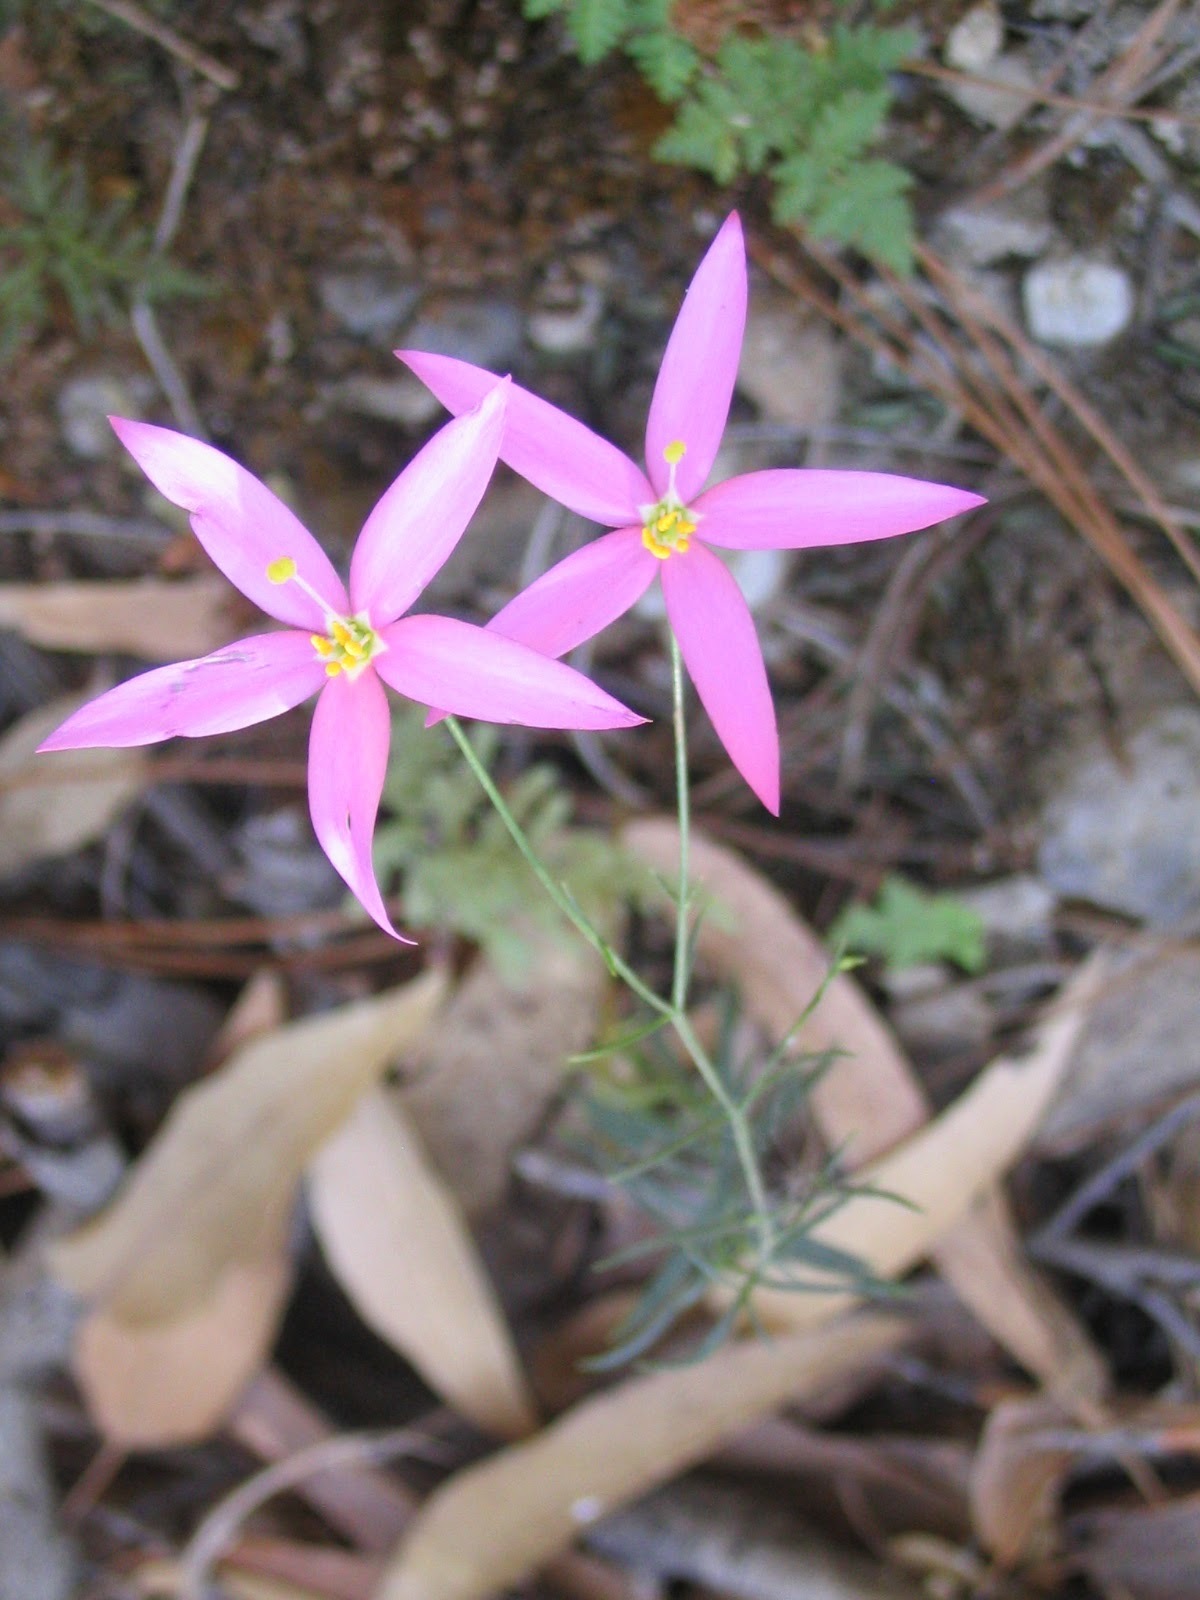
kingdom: Plantae
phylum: Tracheophyta
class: Magnoliopsida
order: Gentianales
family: Gentianaceae
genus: Gyrandra
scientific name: Gyrandra tenuifolia
